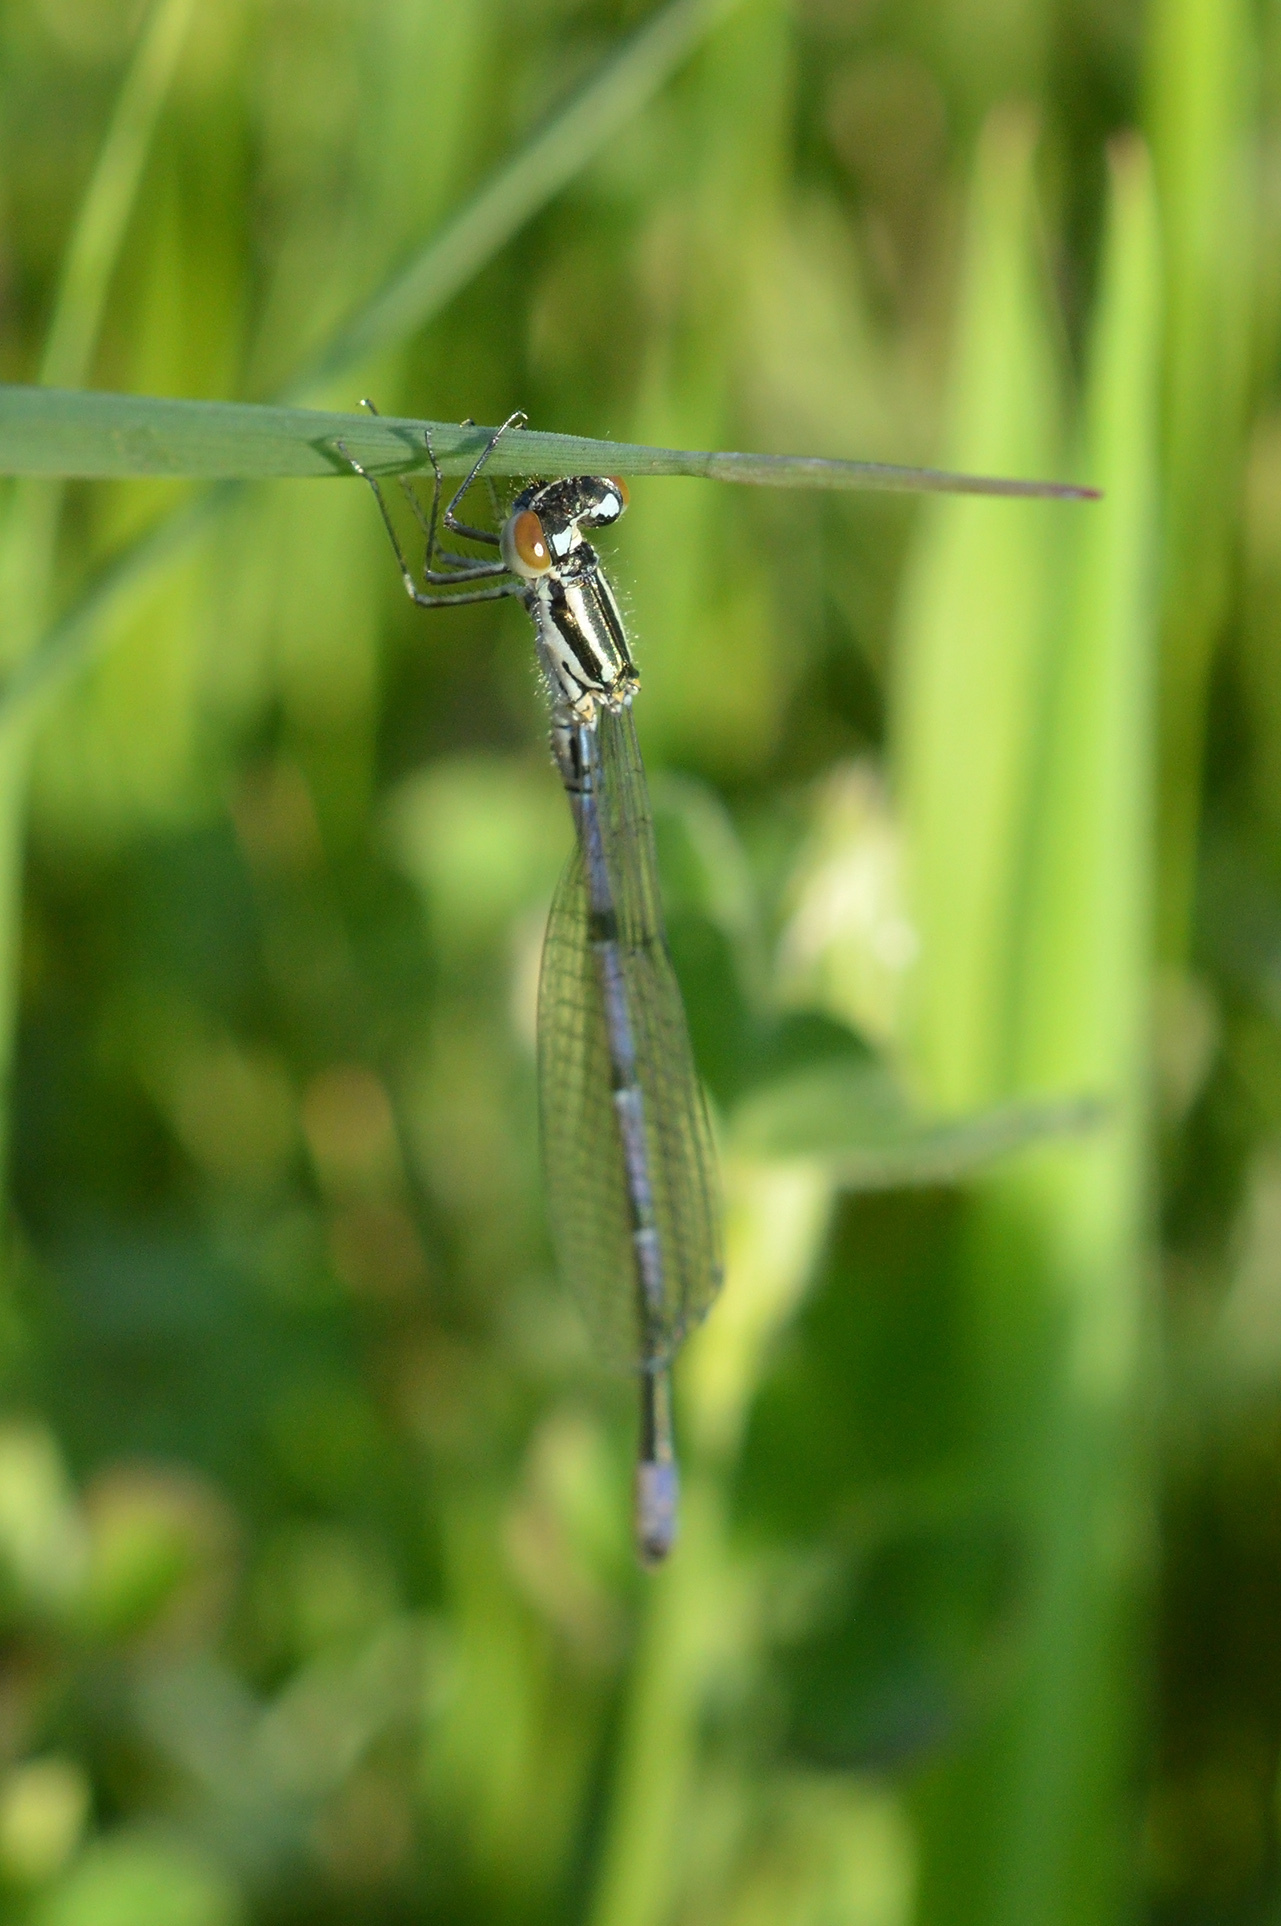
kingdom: Animalia
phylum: Arthropoda
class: Insecta
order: Odonata
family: Coenagrionidae
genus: Coenagrion
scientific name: Coenagrion puella
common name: Azure damselfly
